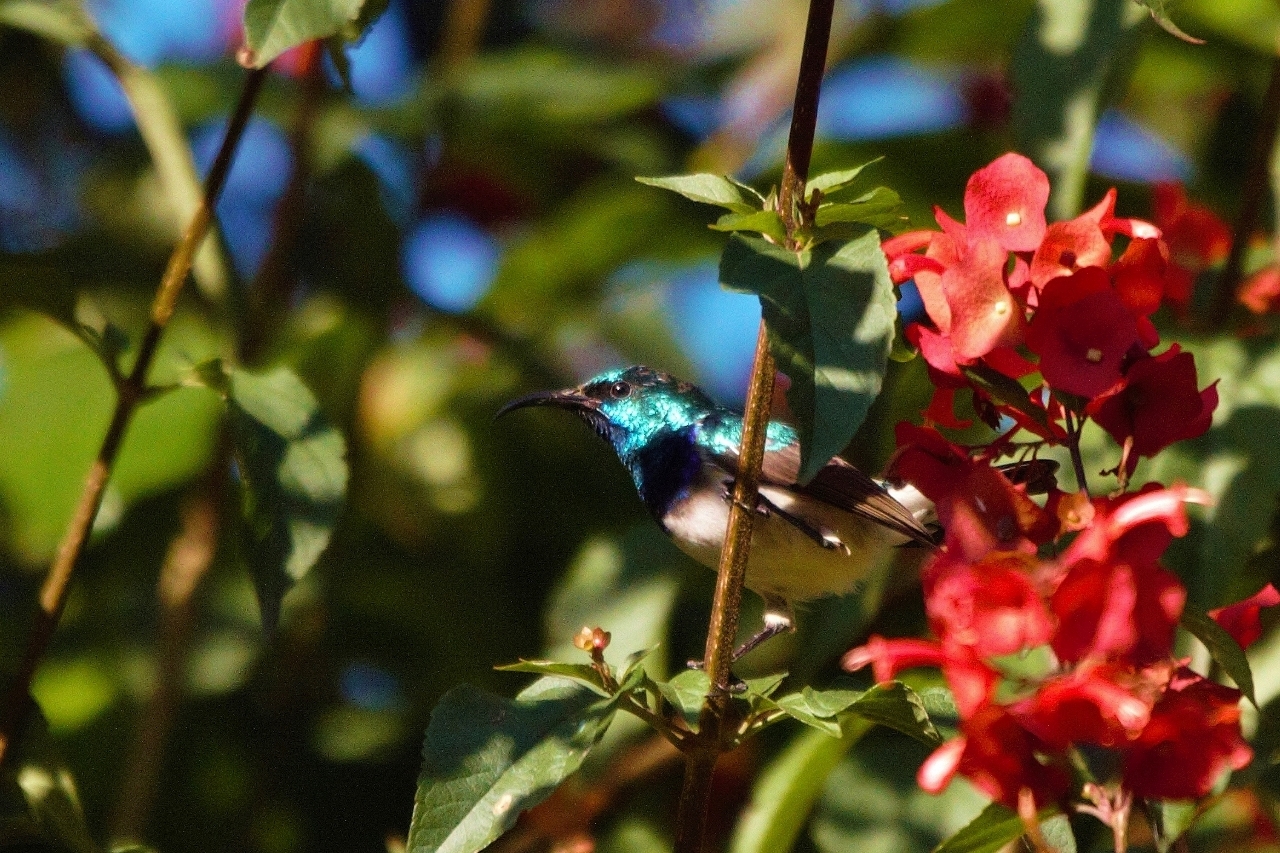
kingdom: Animalia
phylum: Chordata
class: Aves
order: Passeriformes
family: Nectariniidae
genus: Cinnyris
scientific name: Cinnyris talatala
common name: White-bellied sunbird
